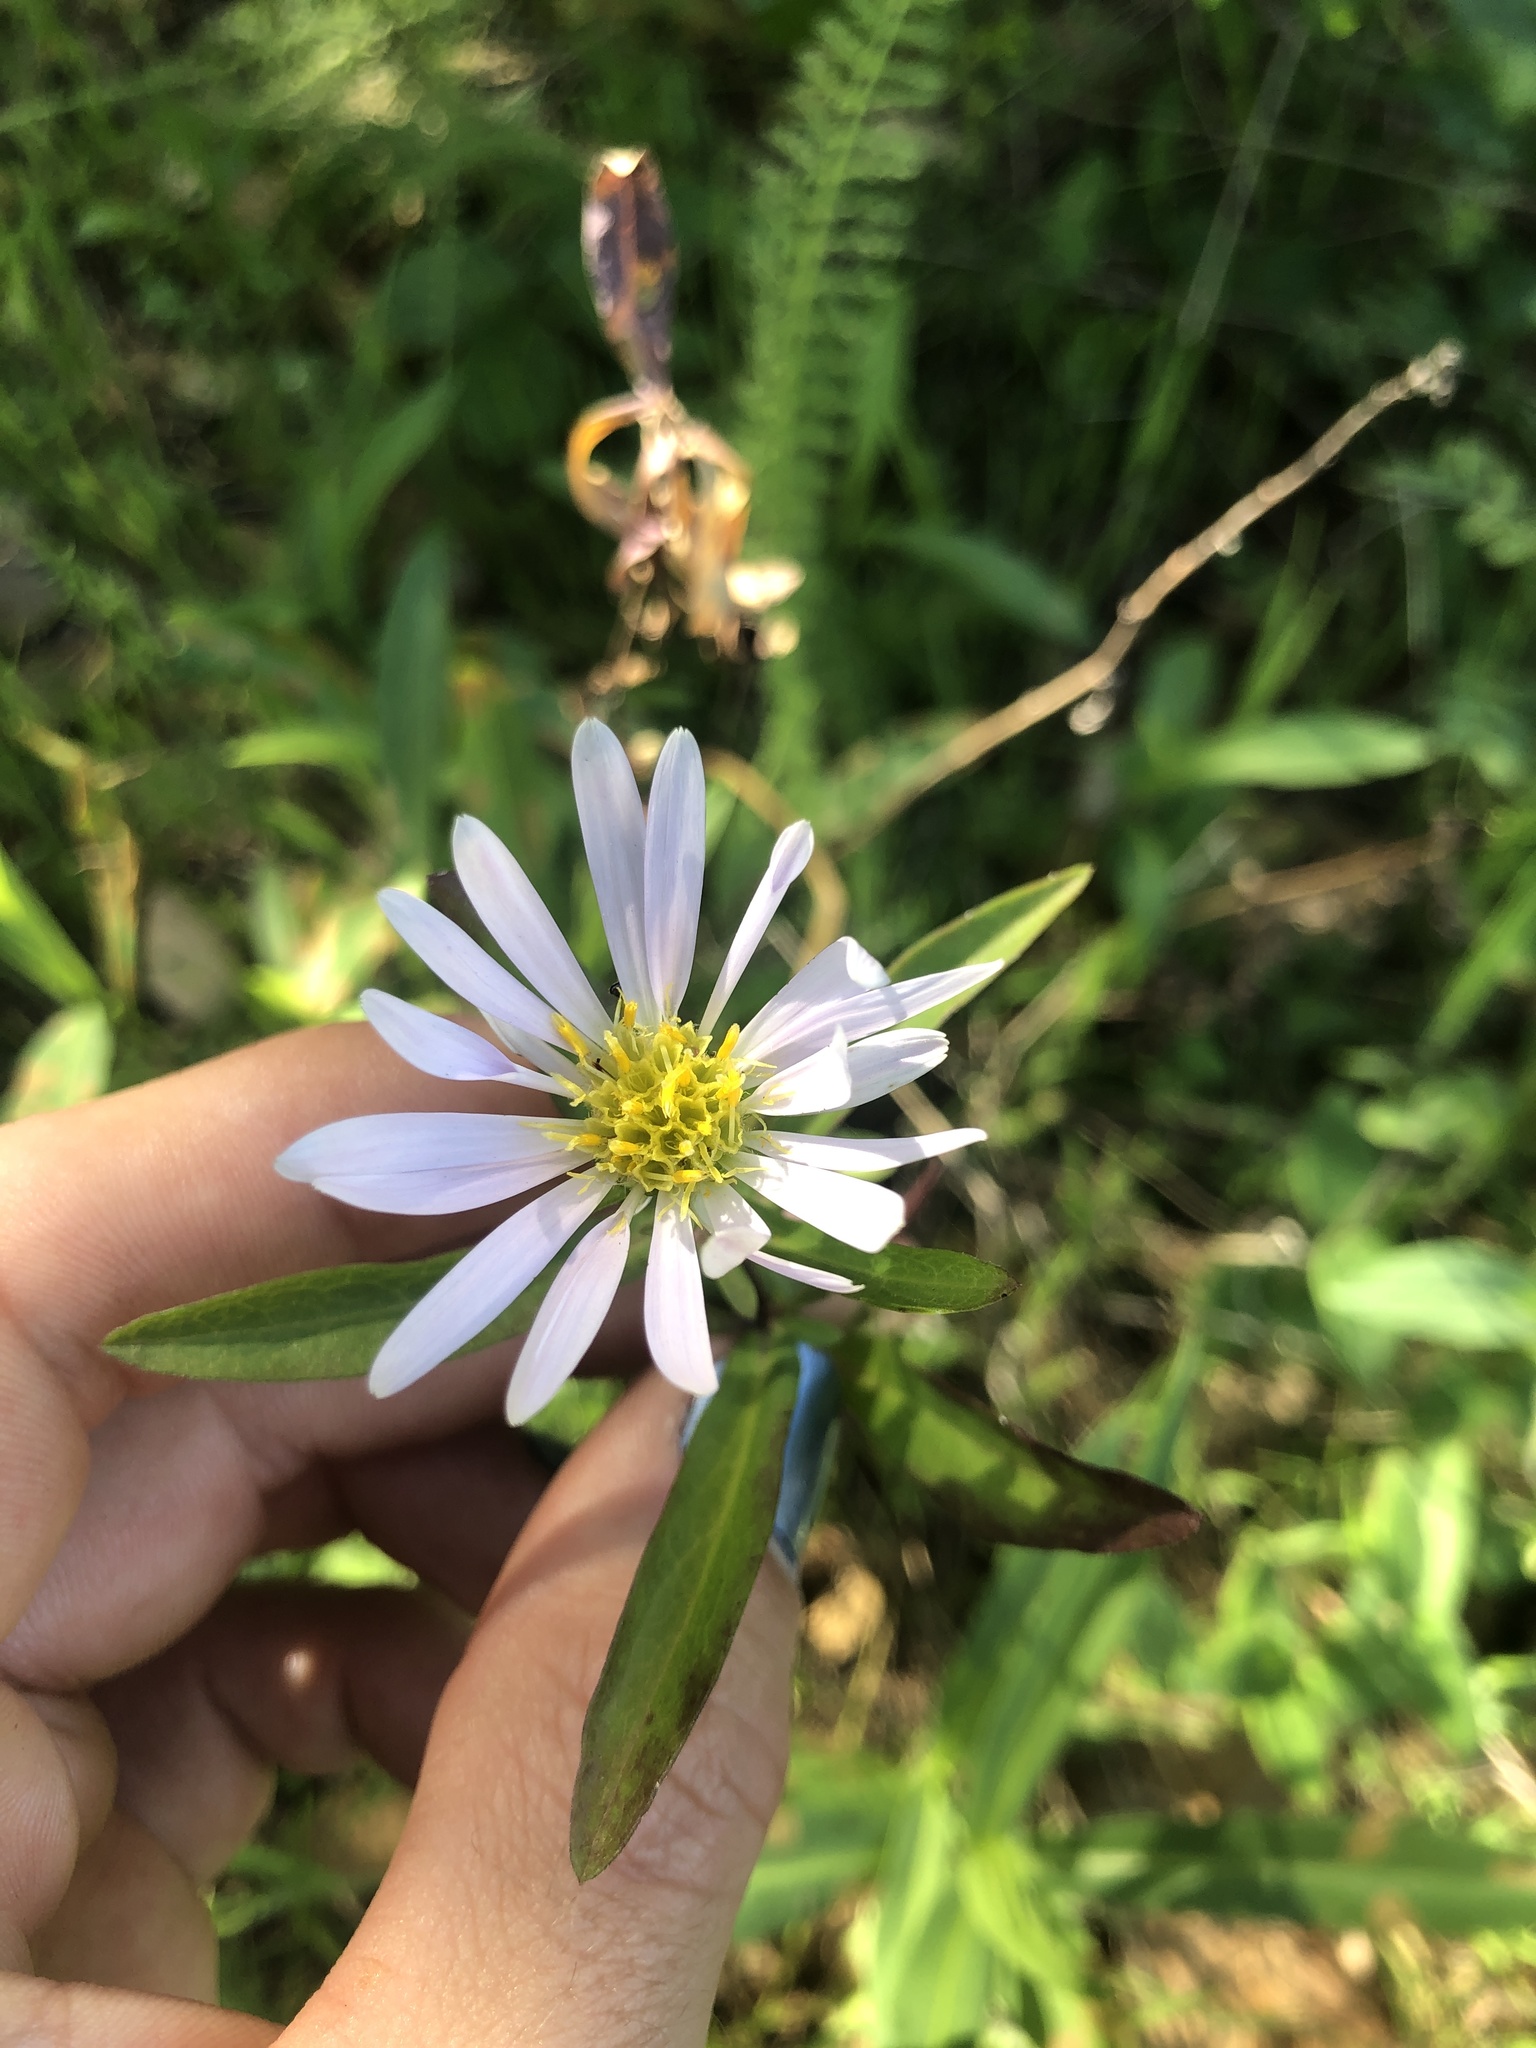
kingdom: Plantae
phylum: Tracheophyta
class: Magnoliopsida
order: Asterales
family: Asteraceae
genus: Symphyotrichum
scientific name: Symphyotrichum chilense
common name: Pacific aster
